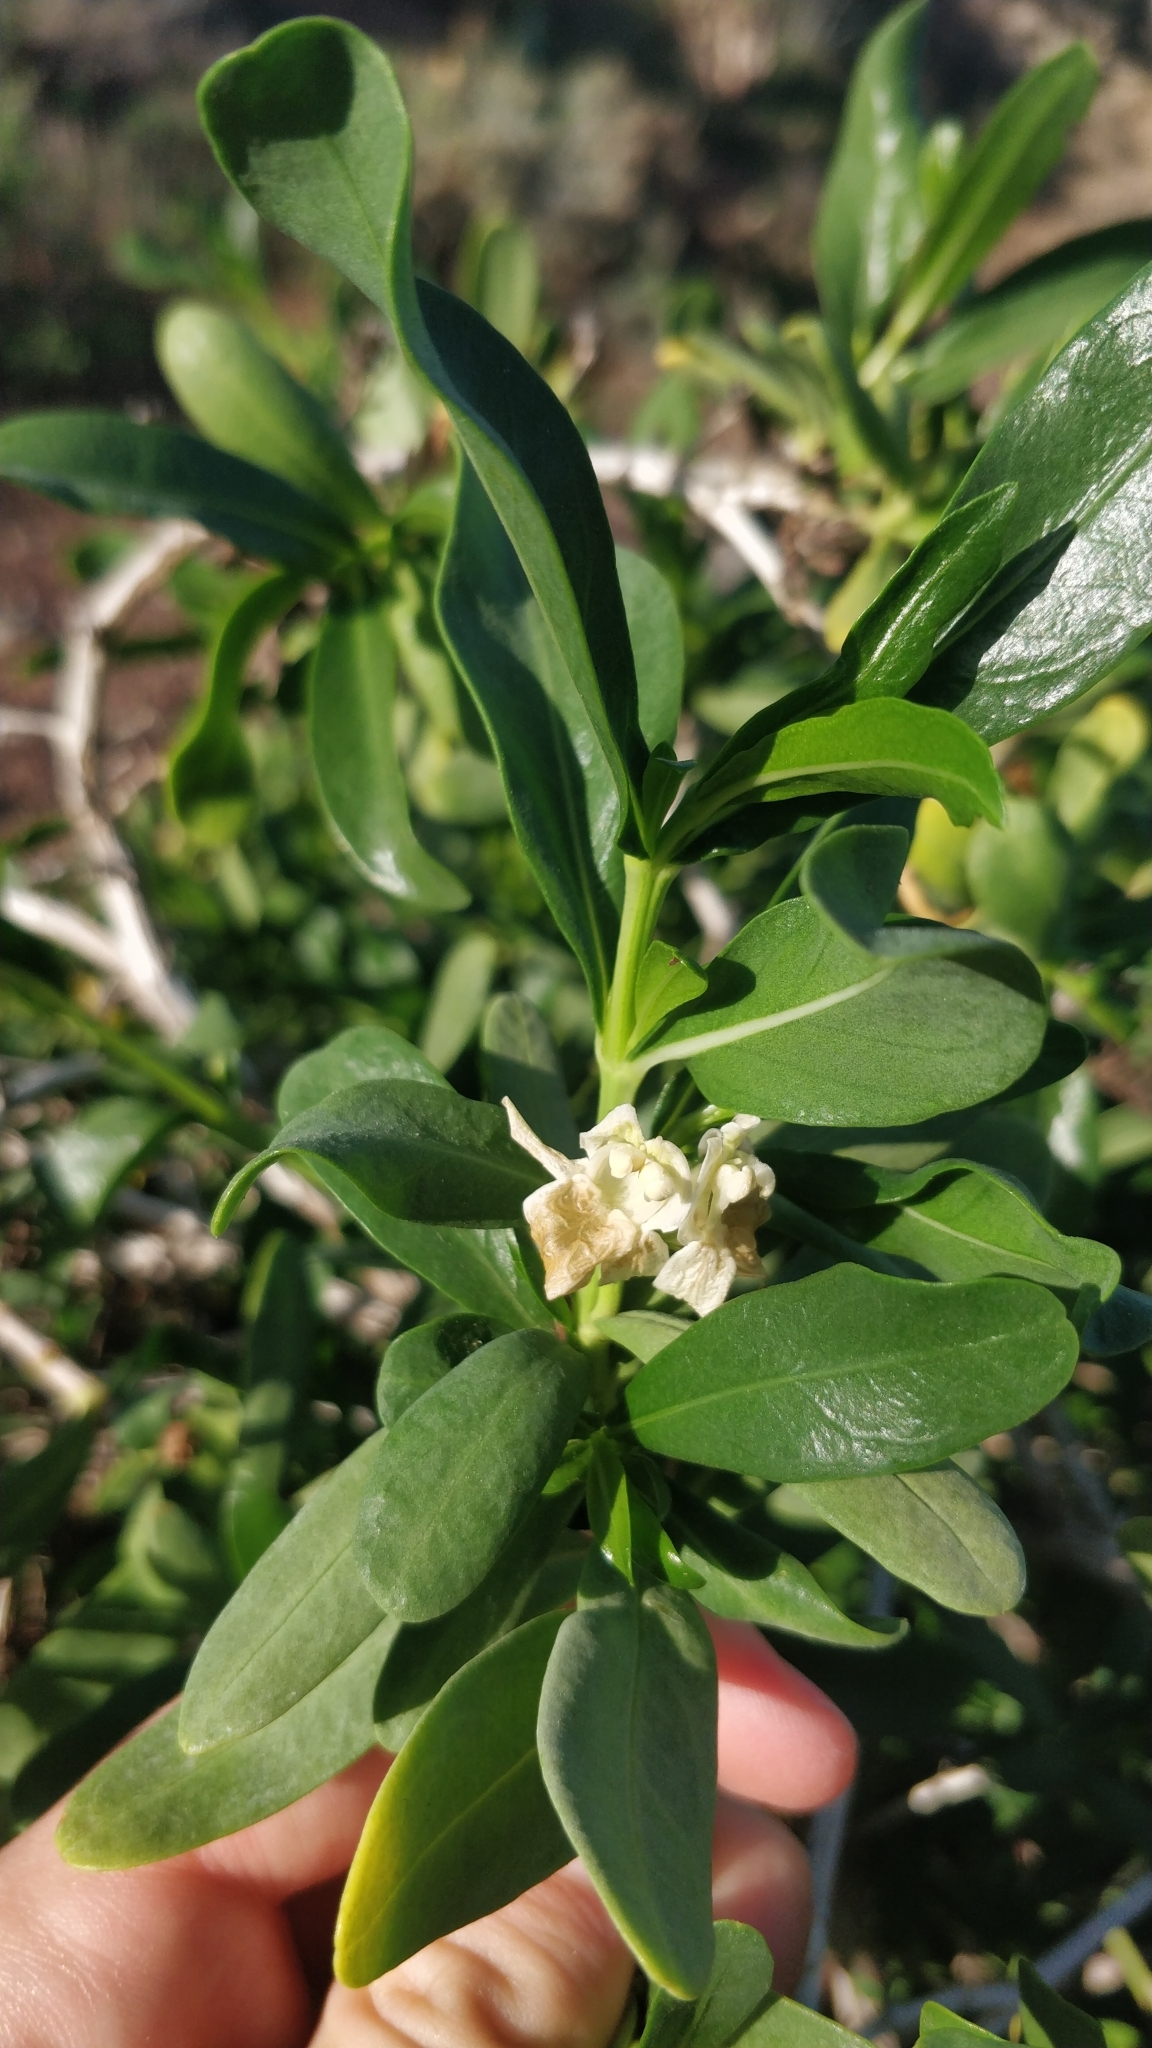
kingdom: Plantae
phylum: Tracheophyta
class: Magnoliopsida
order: Lamiales
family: Acanthaceae
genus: Justicia
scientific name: Justicia hyssopifolia
